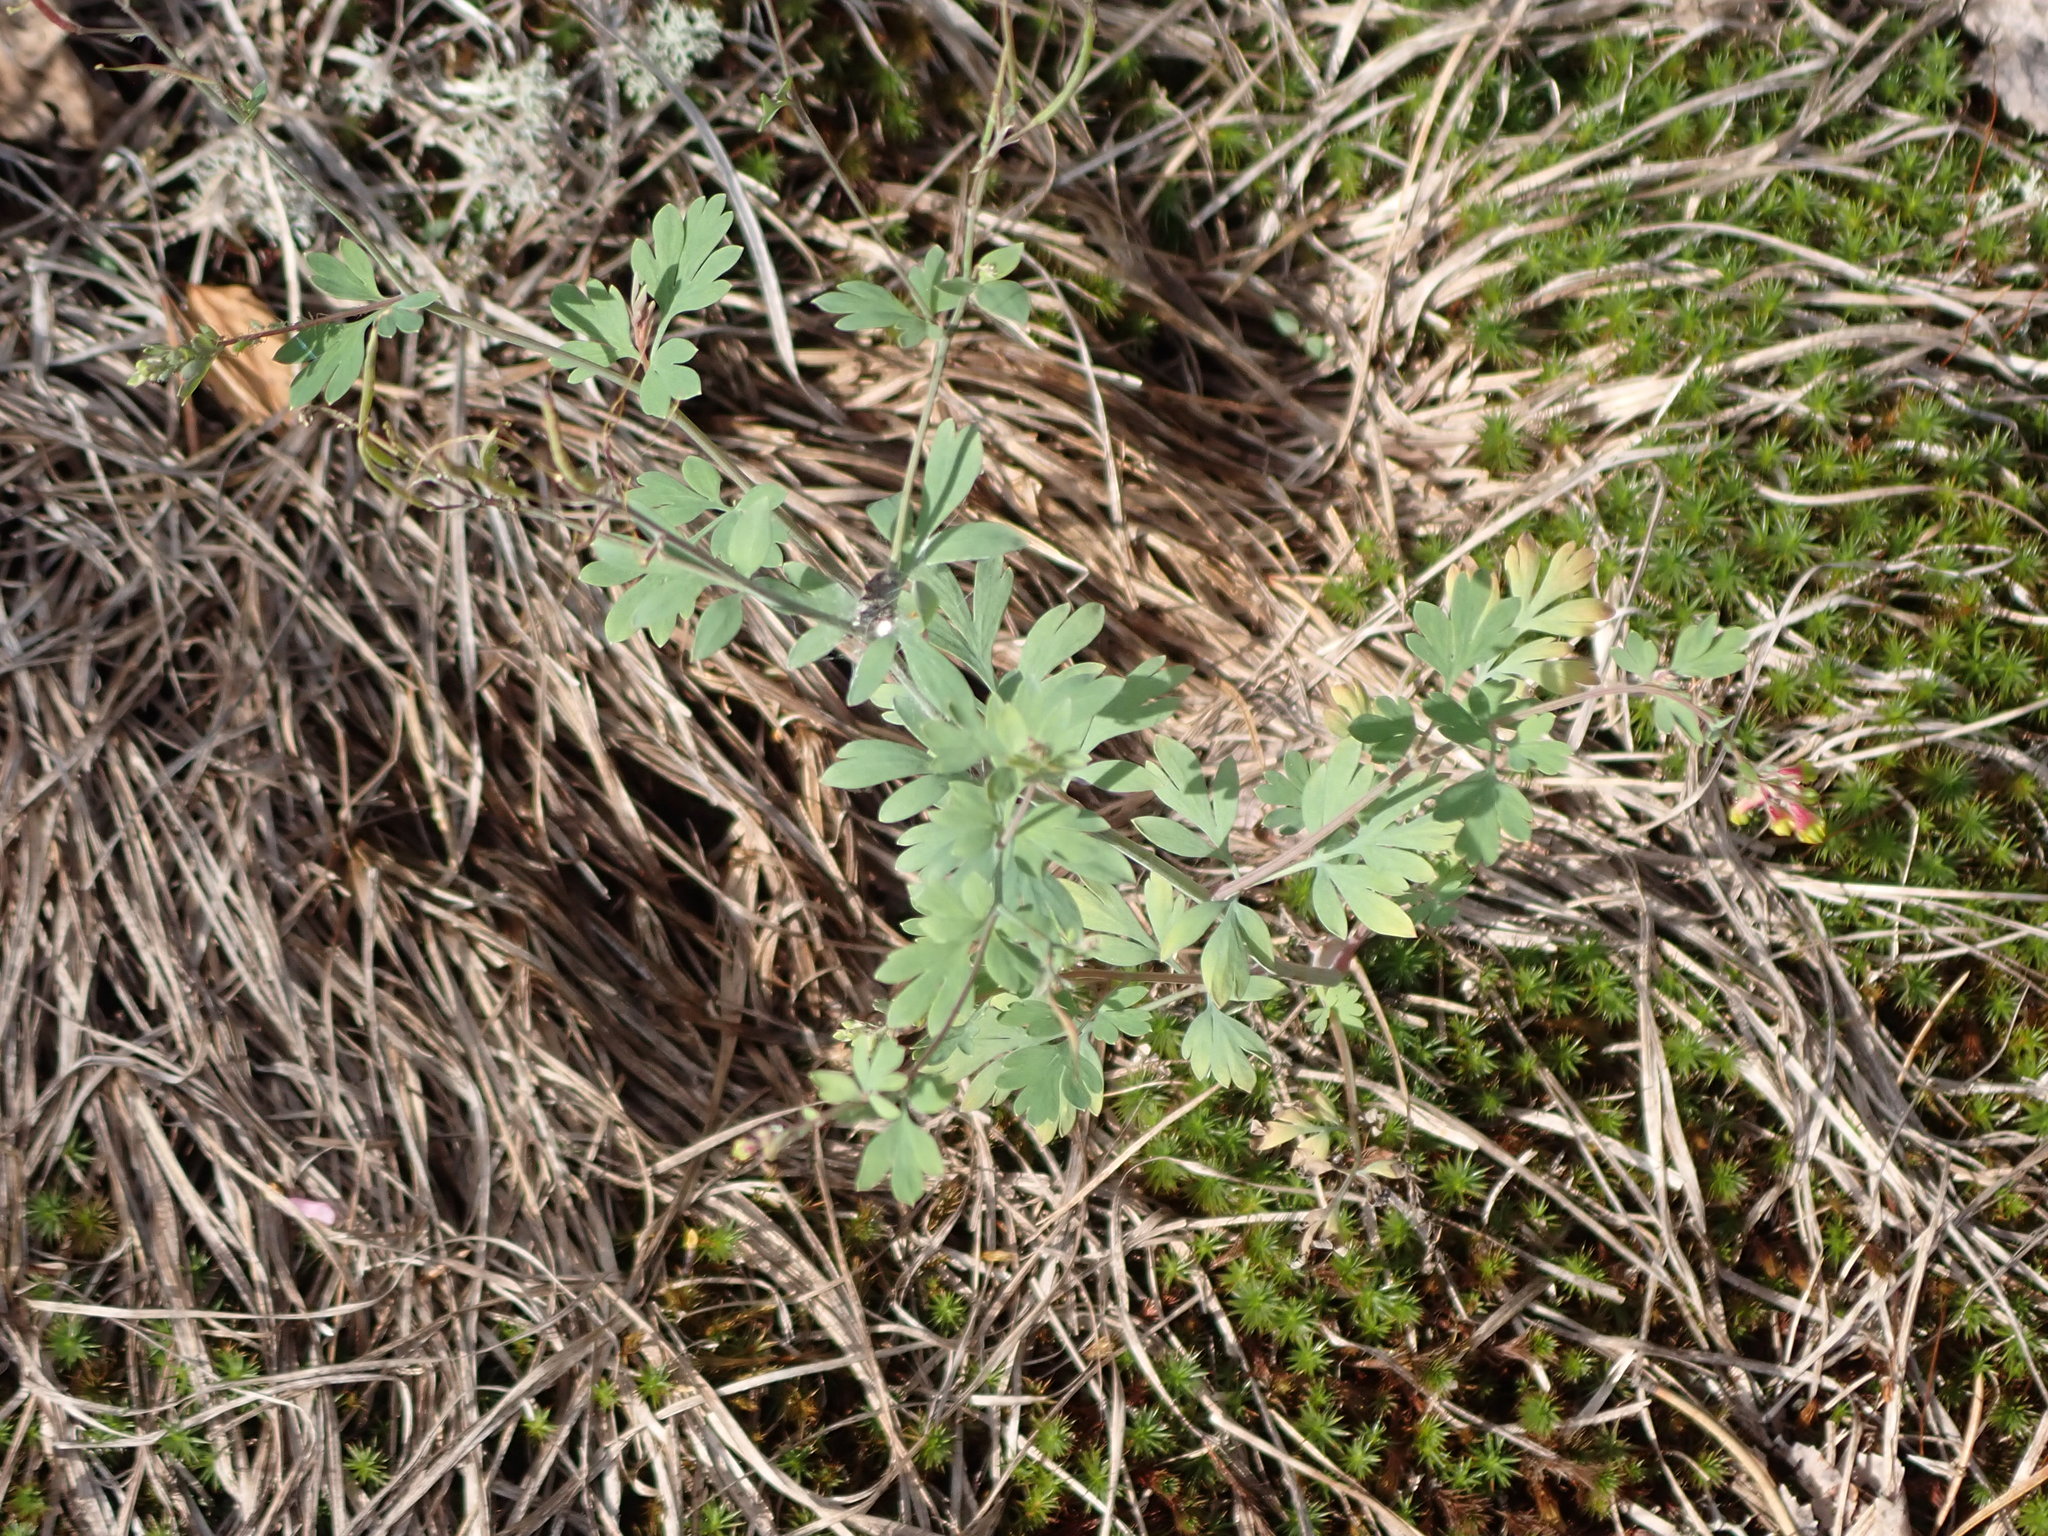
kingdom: Plantae
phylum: Tracheophyta
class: Magnoliopsida
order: Ranunculales
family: Papaveraceae
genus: Capnoides
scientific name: Capnoides sempervirens
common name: Rock harlequin
